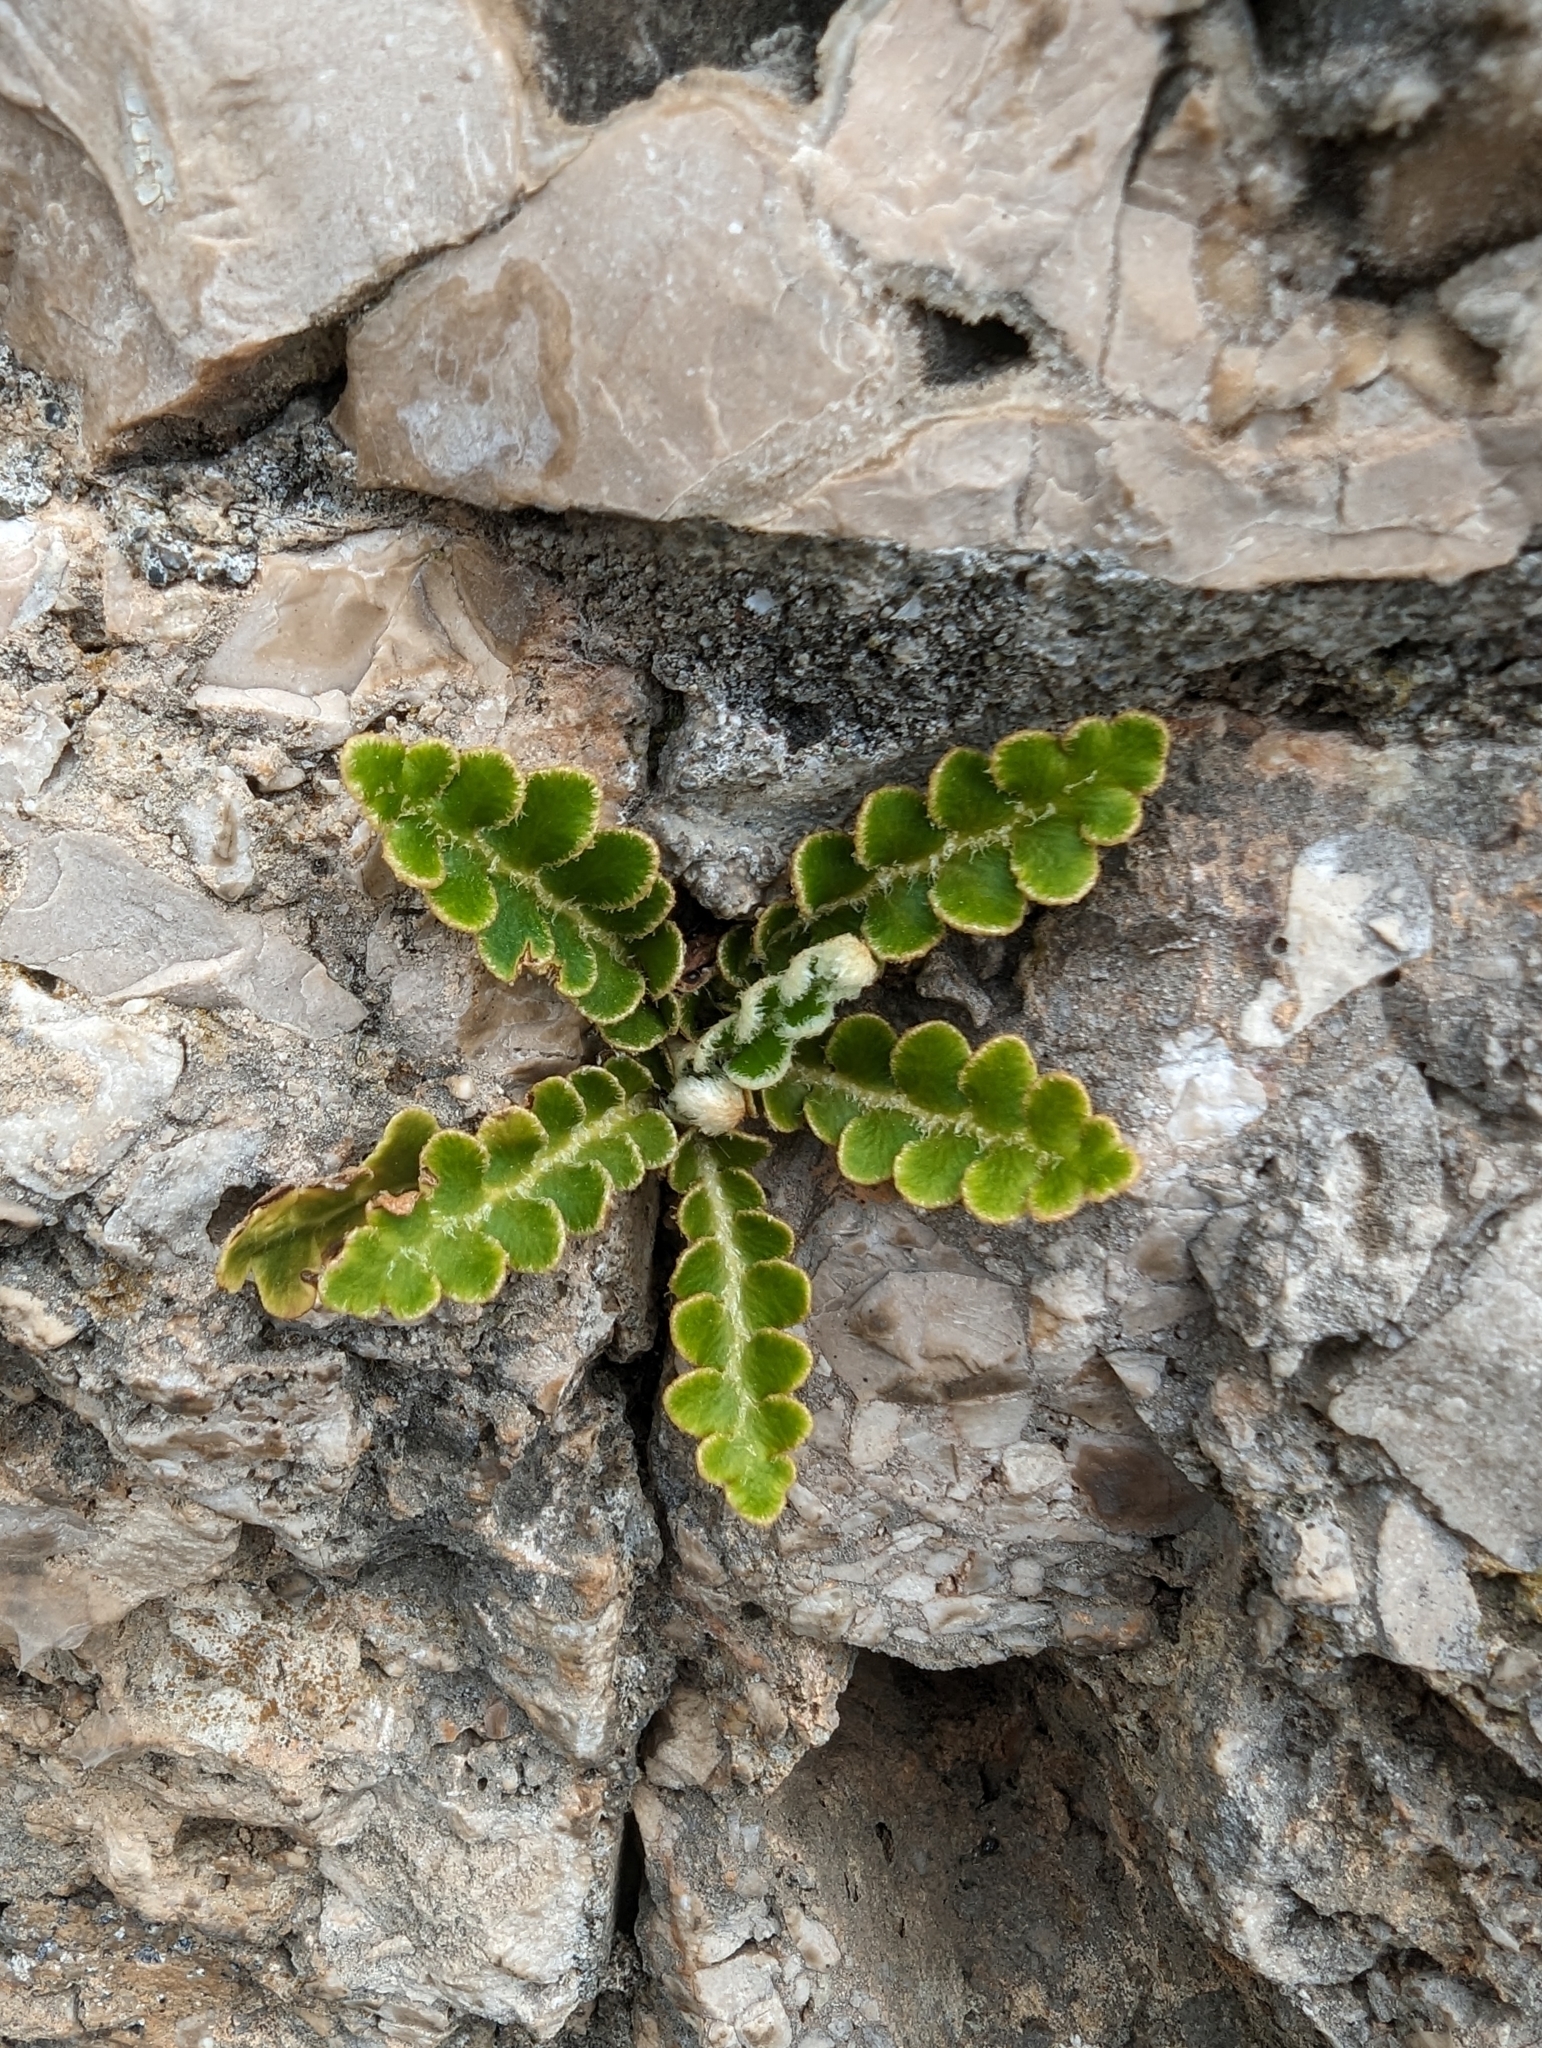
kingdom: Plantae
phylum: Tracheophyta
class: Polypodiopsida
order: Polypodiales
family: Aspleniaceae
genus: Asplenium
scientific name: Asplenium ceterach
